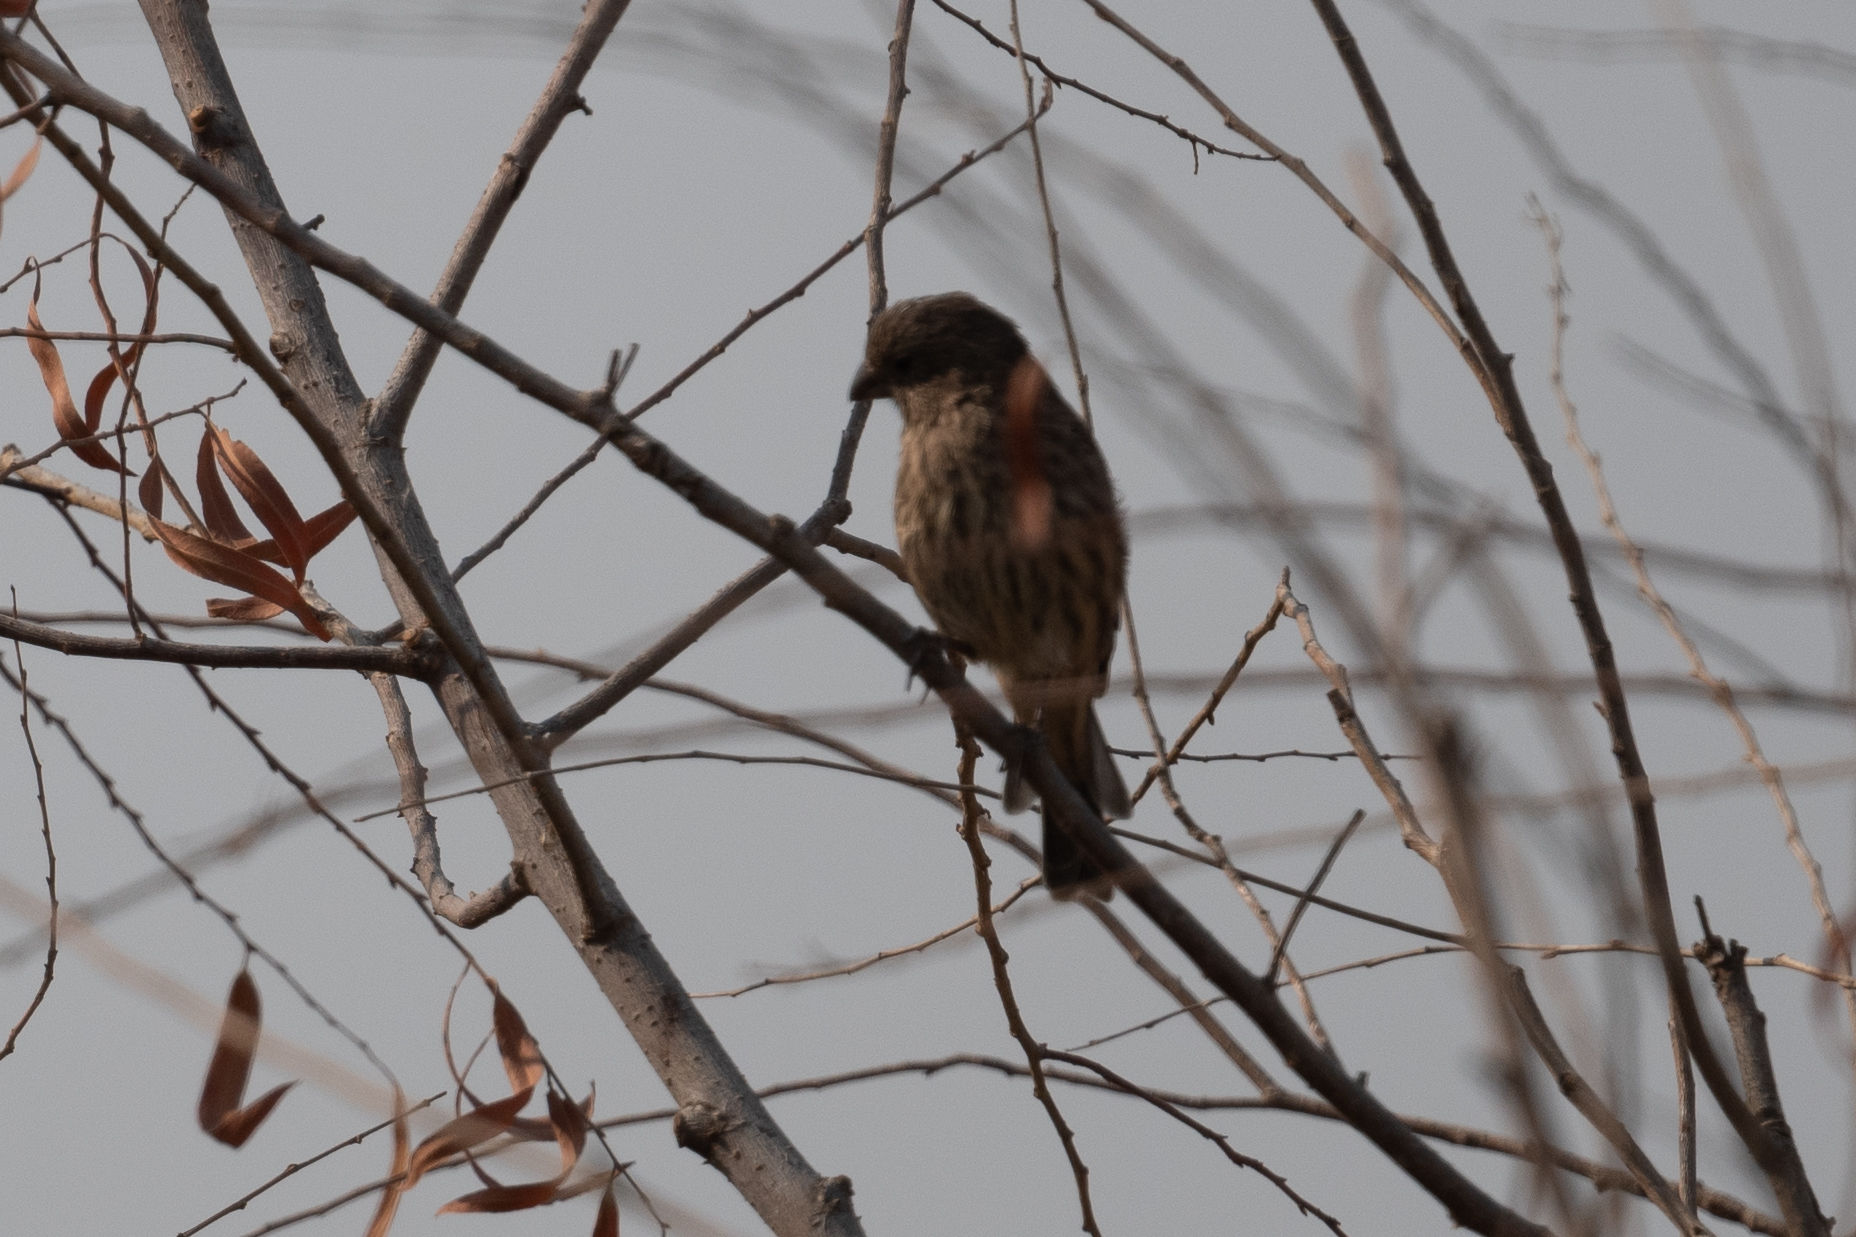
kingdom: Animalia
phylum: Chordata
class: Aves
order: Passeriformes
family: Fringillidae
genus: Haemorhous
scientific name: Haemorhous mexicanus
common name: House finch
